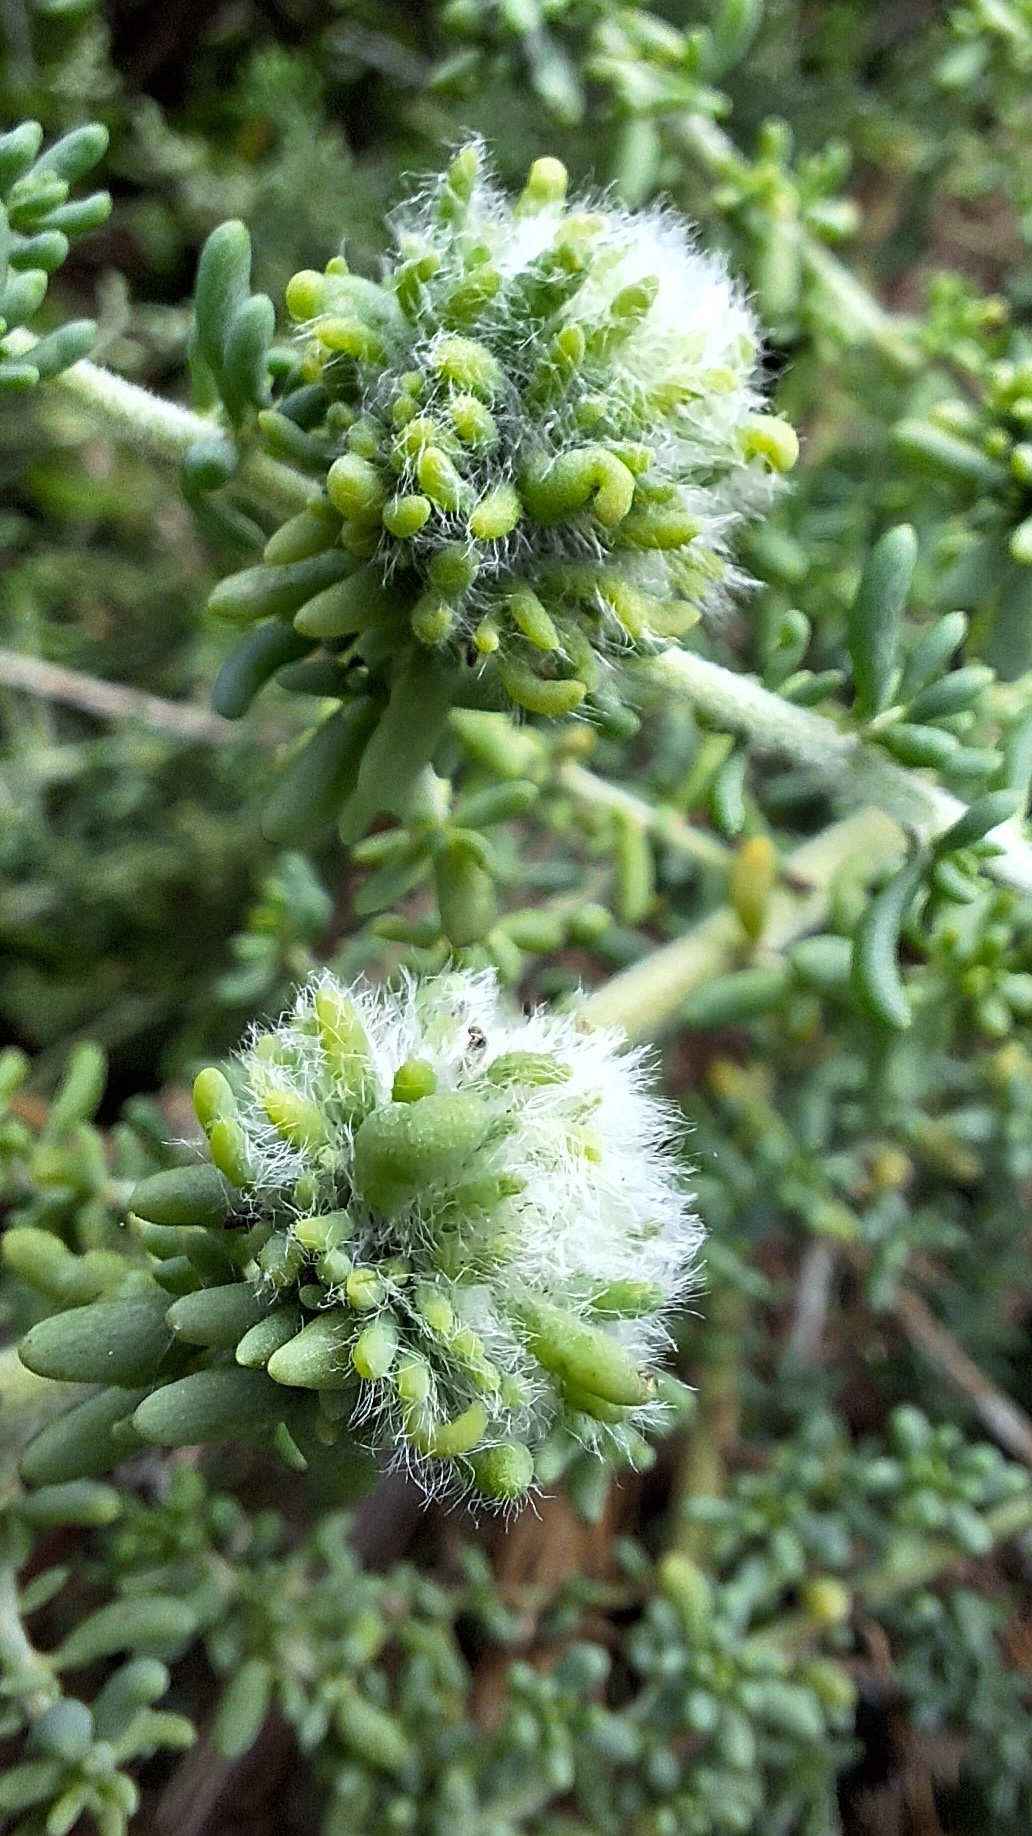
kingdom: Animalia
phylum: Arthropoda
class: Insecta
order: Diptera
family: Cecidomyiidae
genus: Dactylasioptera
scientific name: Dactylasioptera milnae
